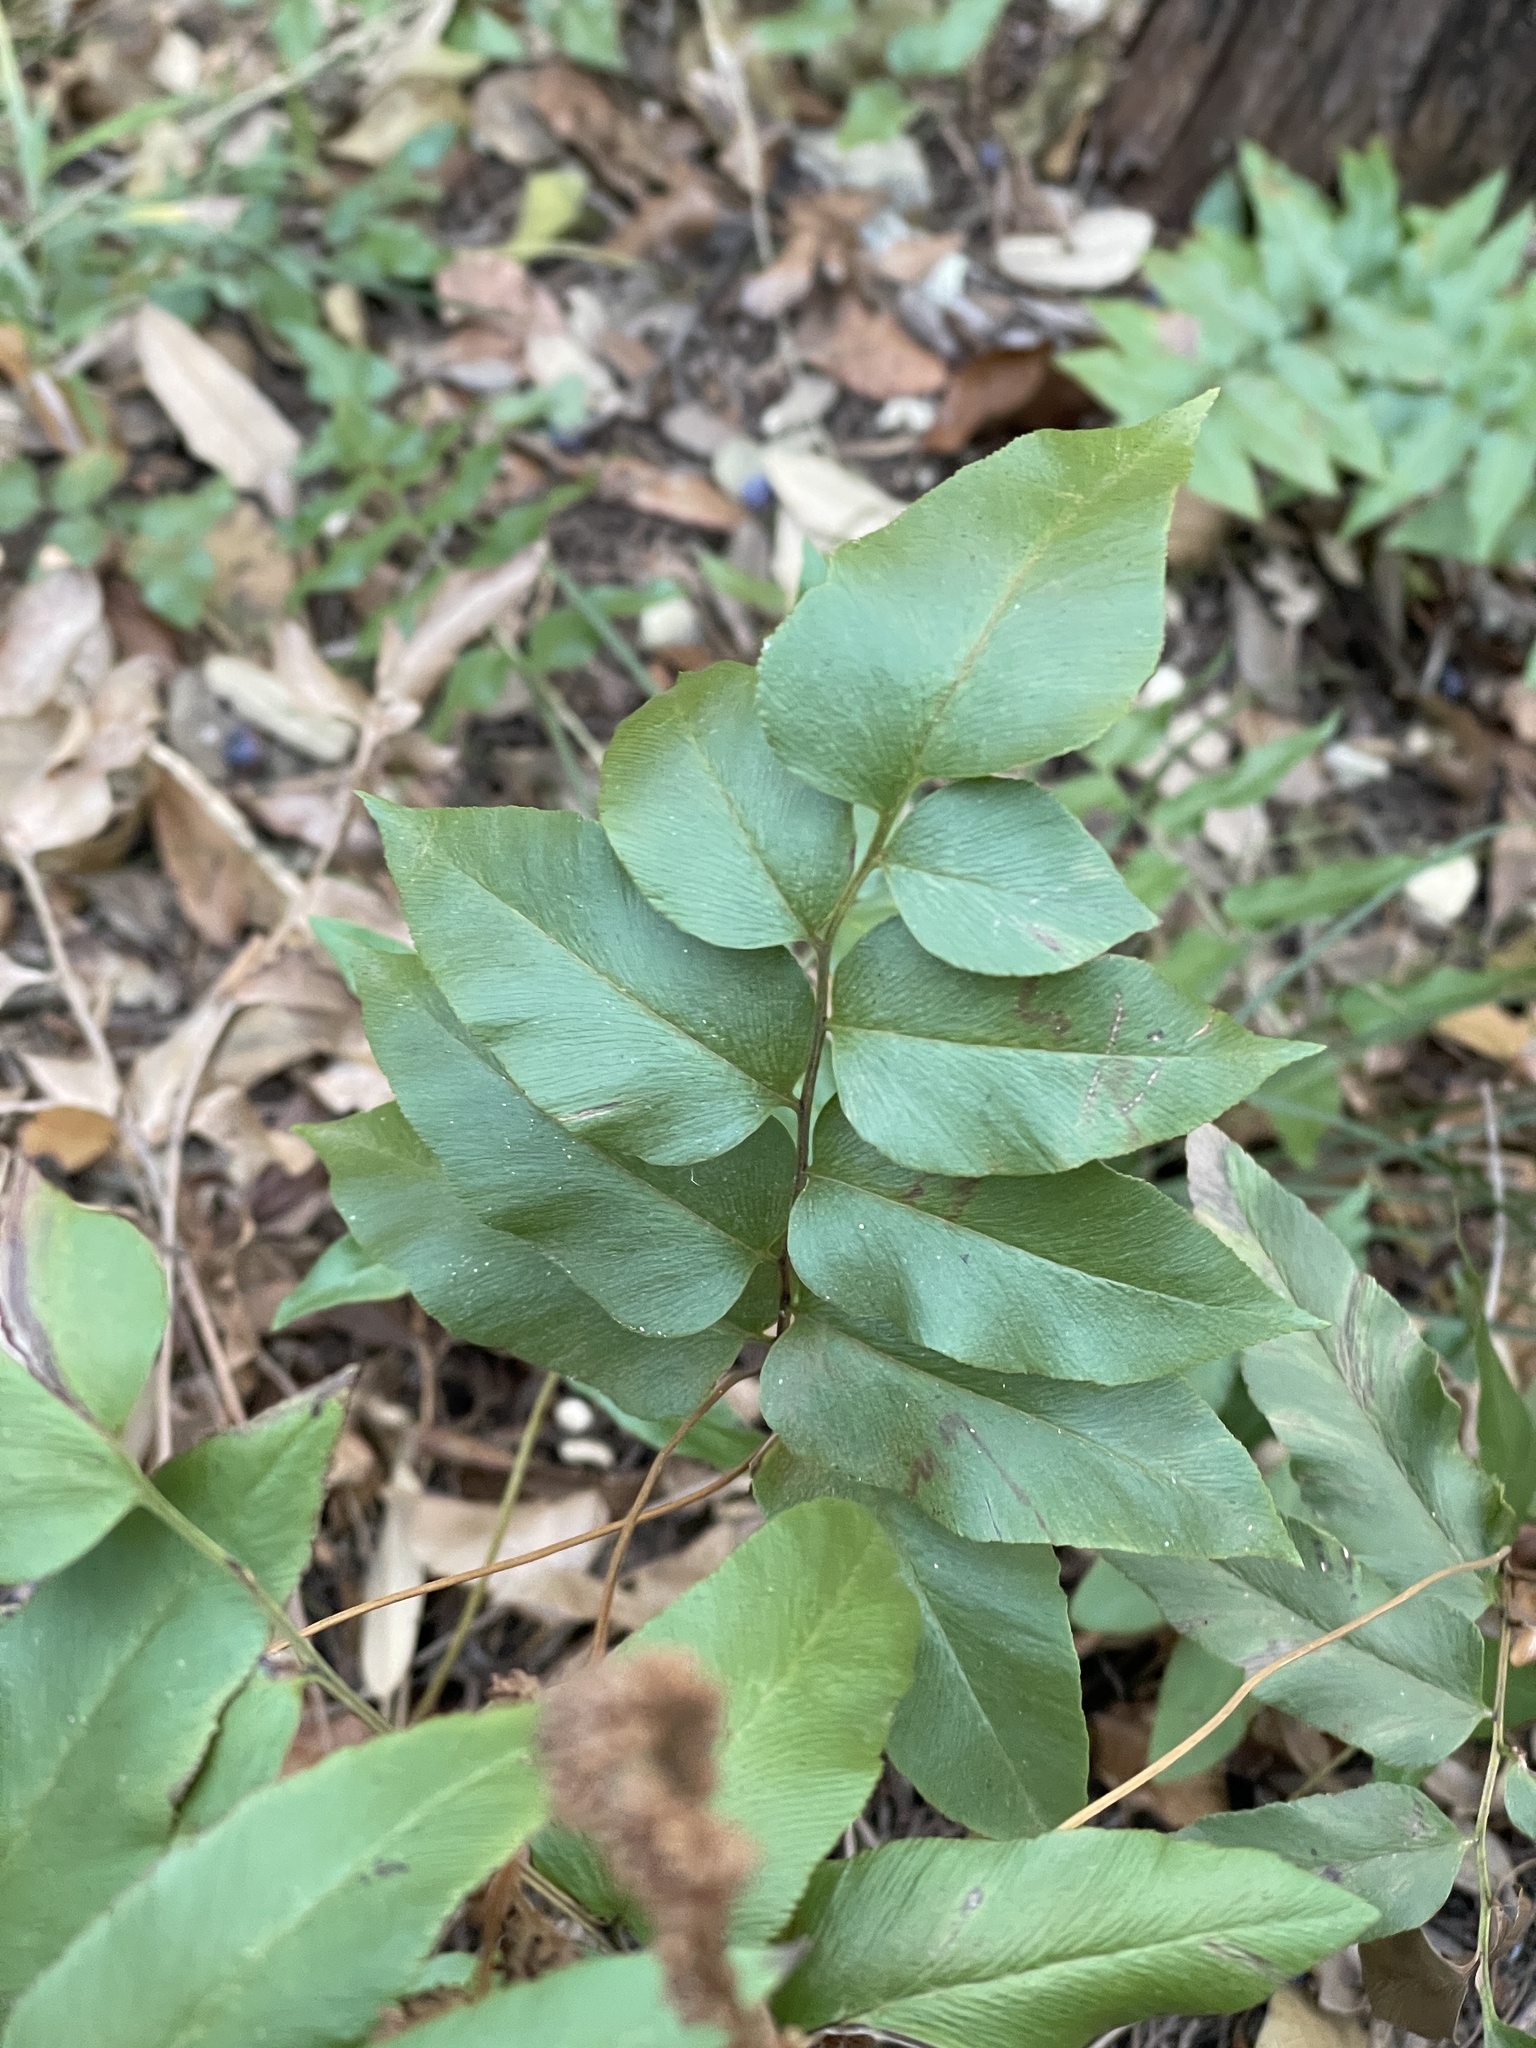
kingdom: Plantae
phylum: Tracheophyta
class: Polypodiopsida
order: Schizaeales
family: Anemiaceae
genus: Anemia
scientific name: Anemia mexicana
